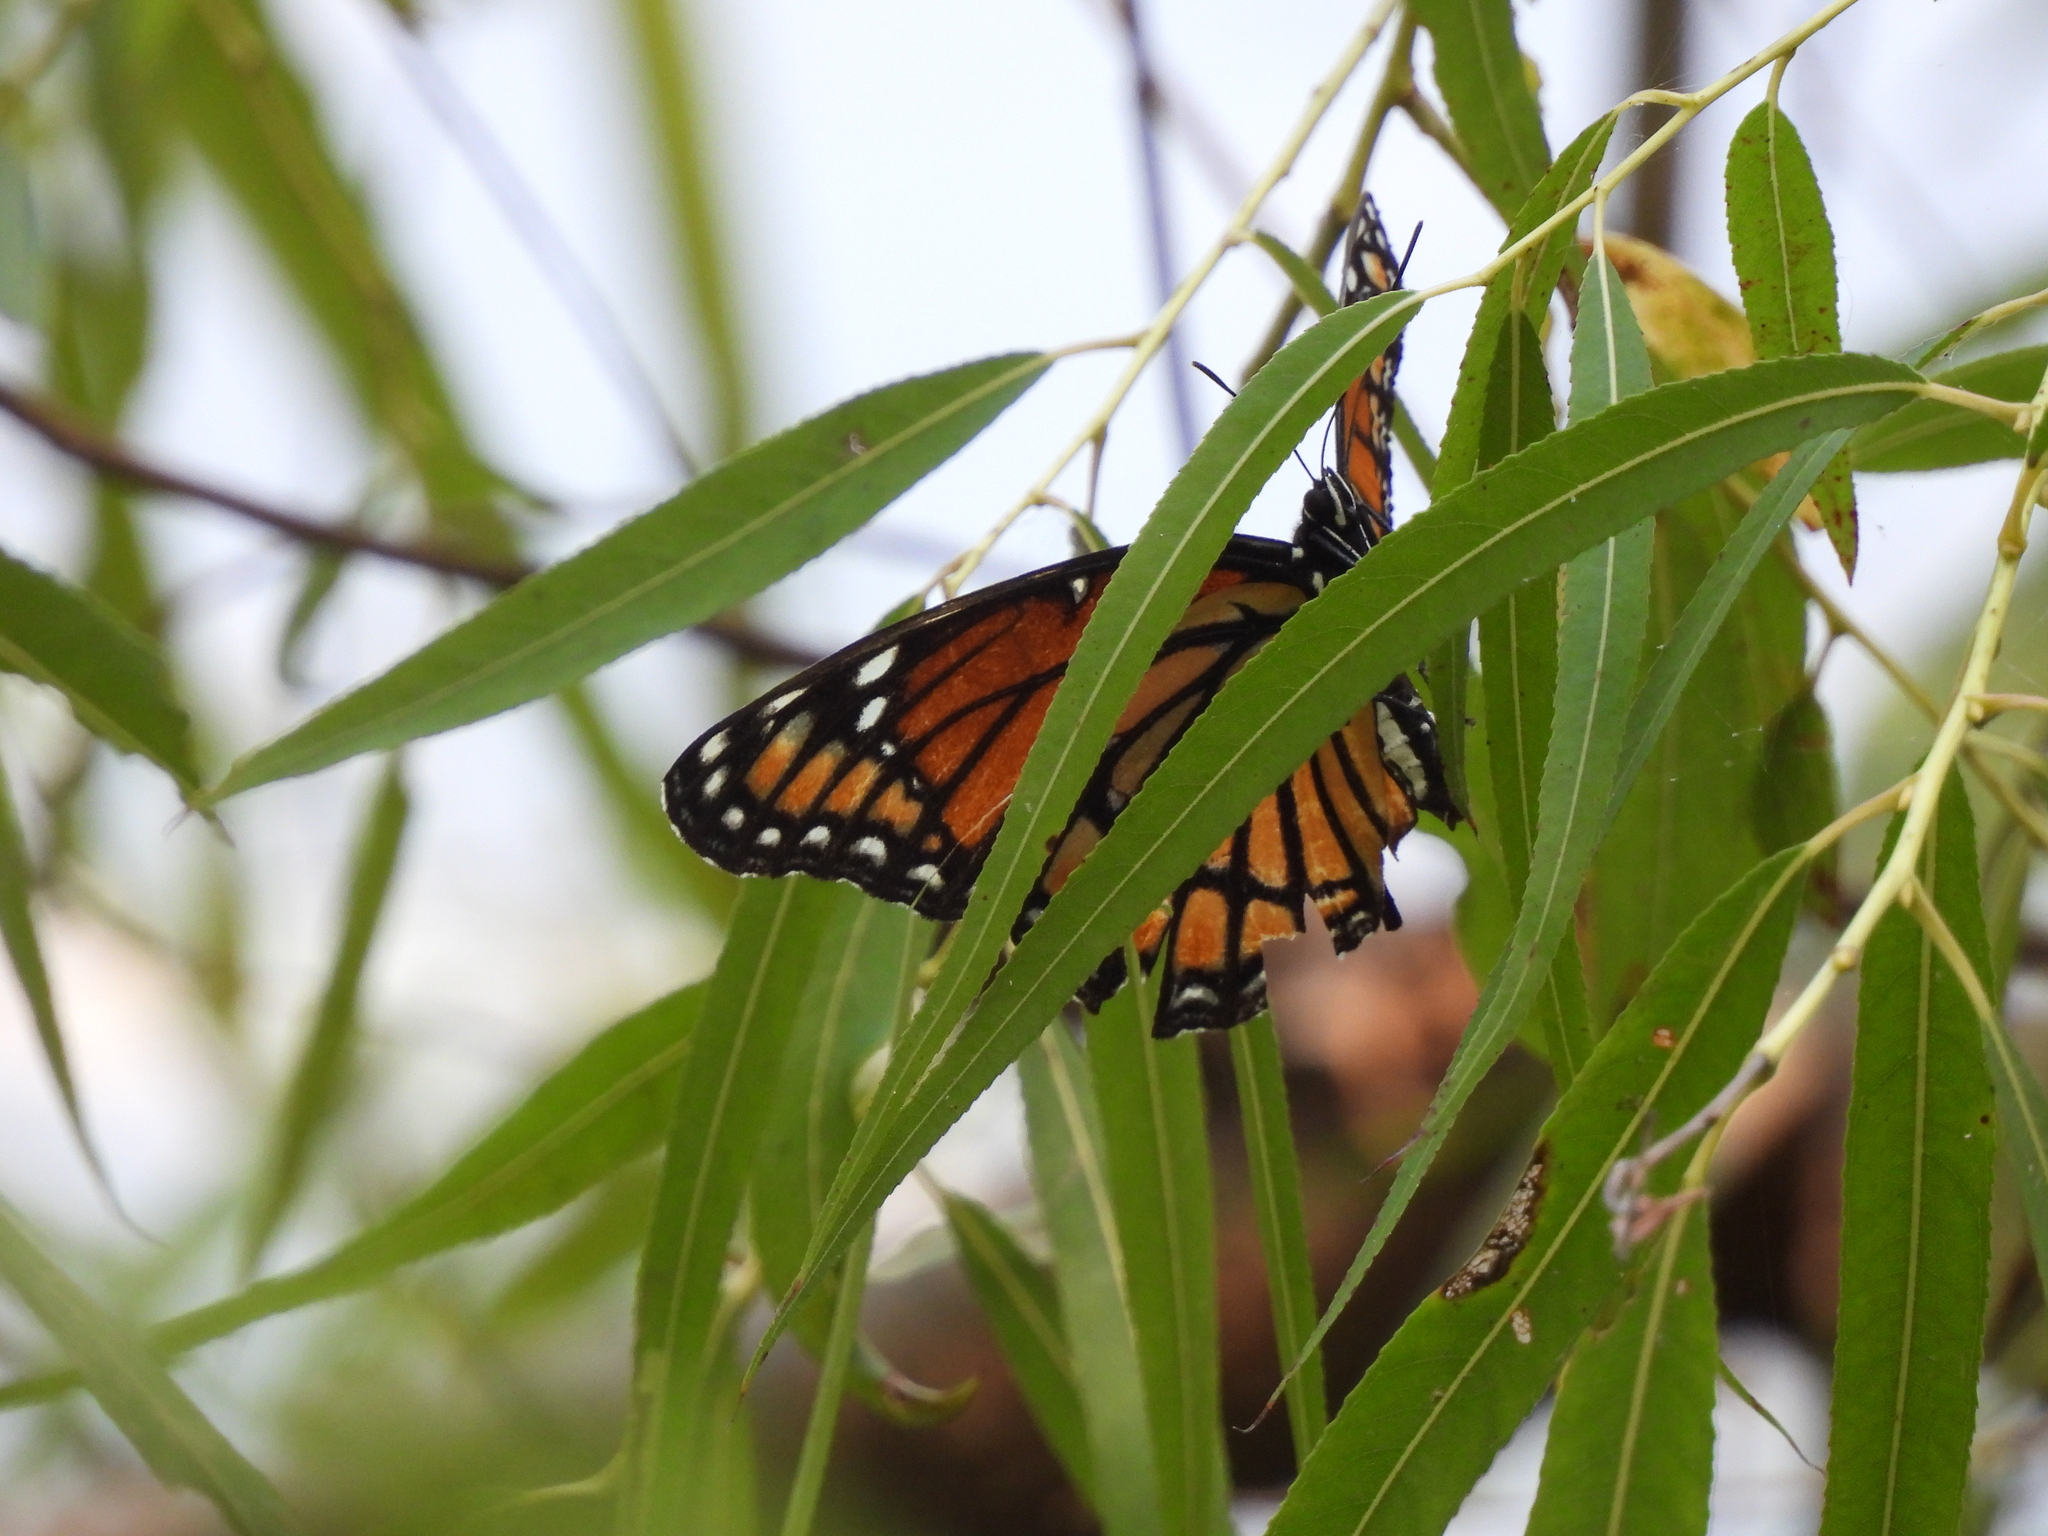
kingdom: Animalia
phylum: Arthropoda
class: Insecta
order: Lepidoptera
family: Nymphalidae
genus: Limenitis
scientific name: Limenitis archippus
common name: Viceroy
